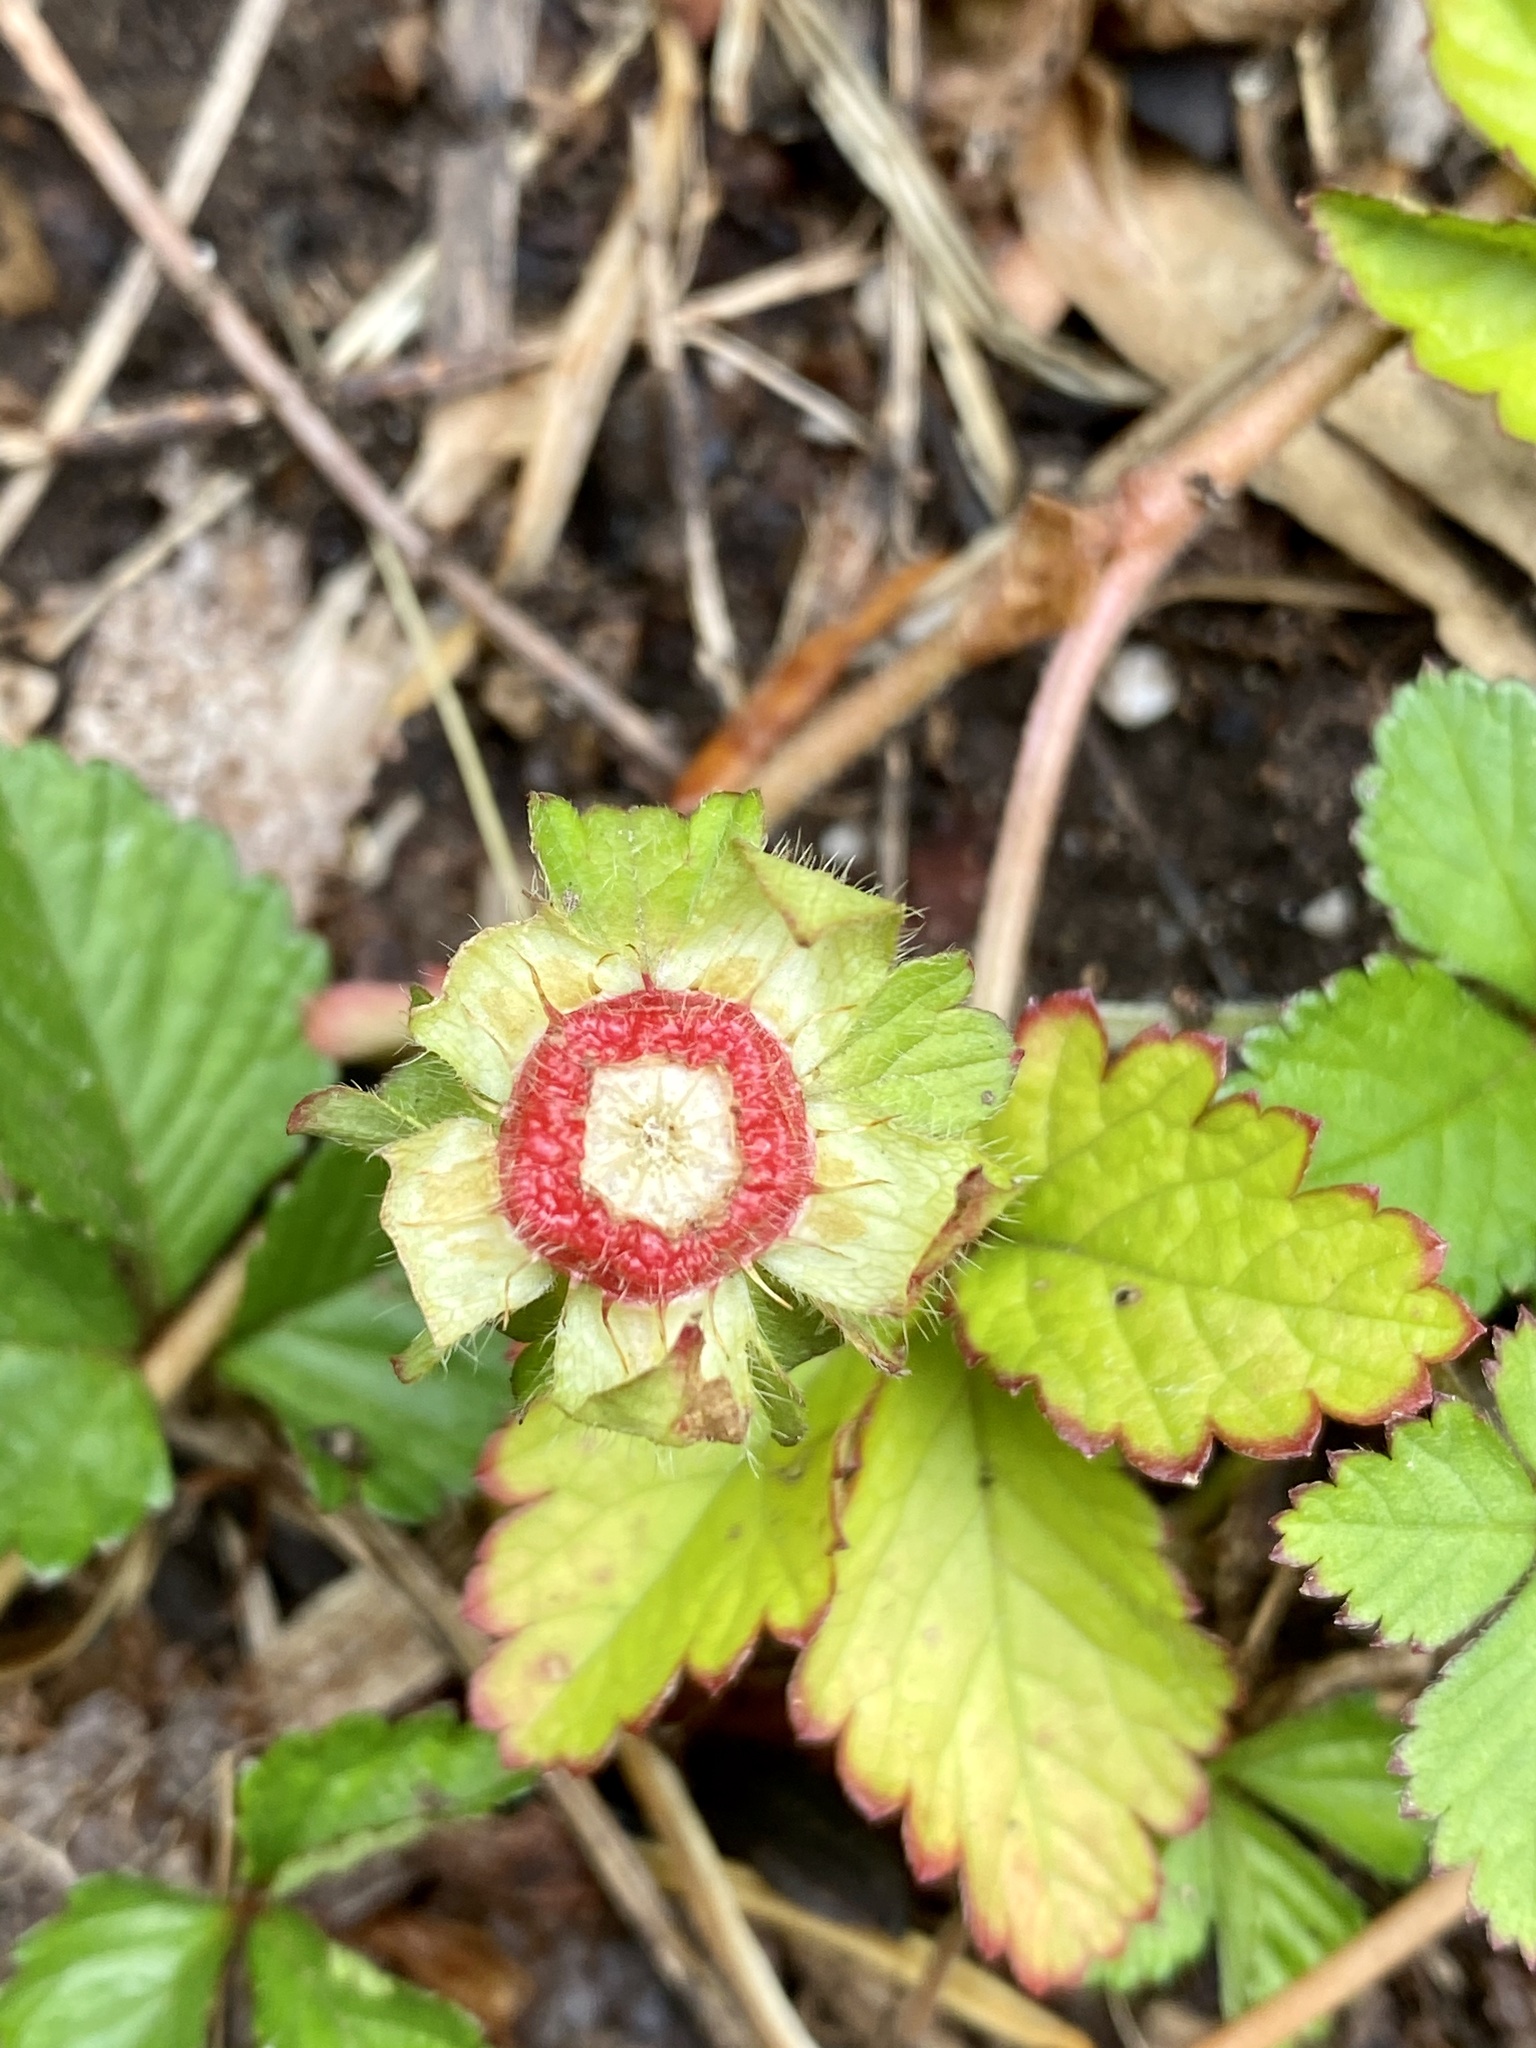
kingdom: Plantae
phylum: Tracheophyta
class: Magnoliopsida
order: Rosales
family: Rosaceae
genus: Potentilla
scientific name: Potentilla indica
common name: Yellow-flowered strawberry
